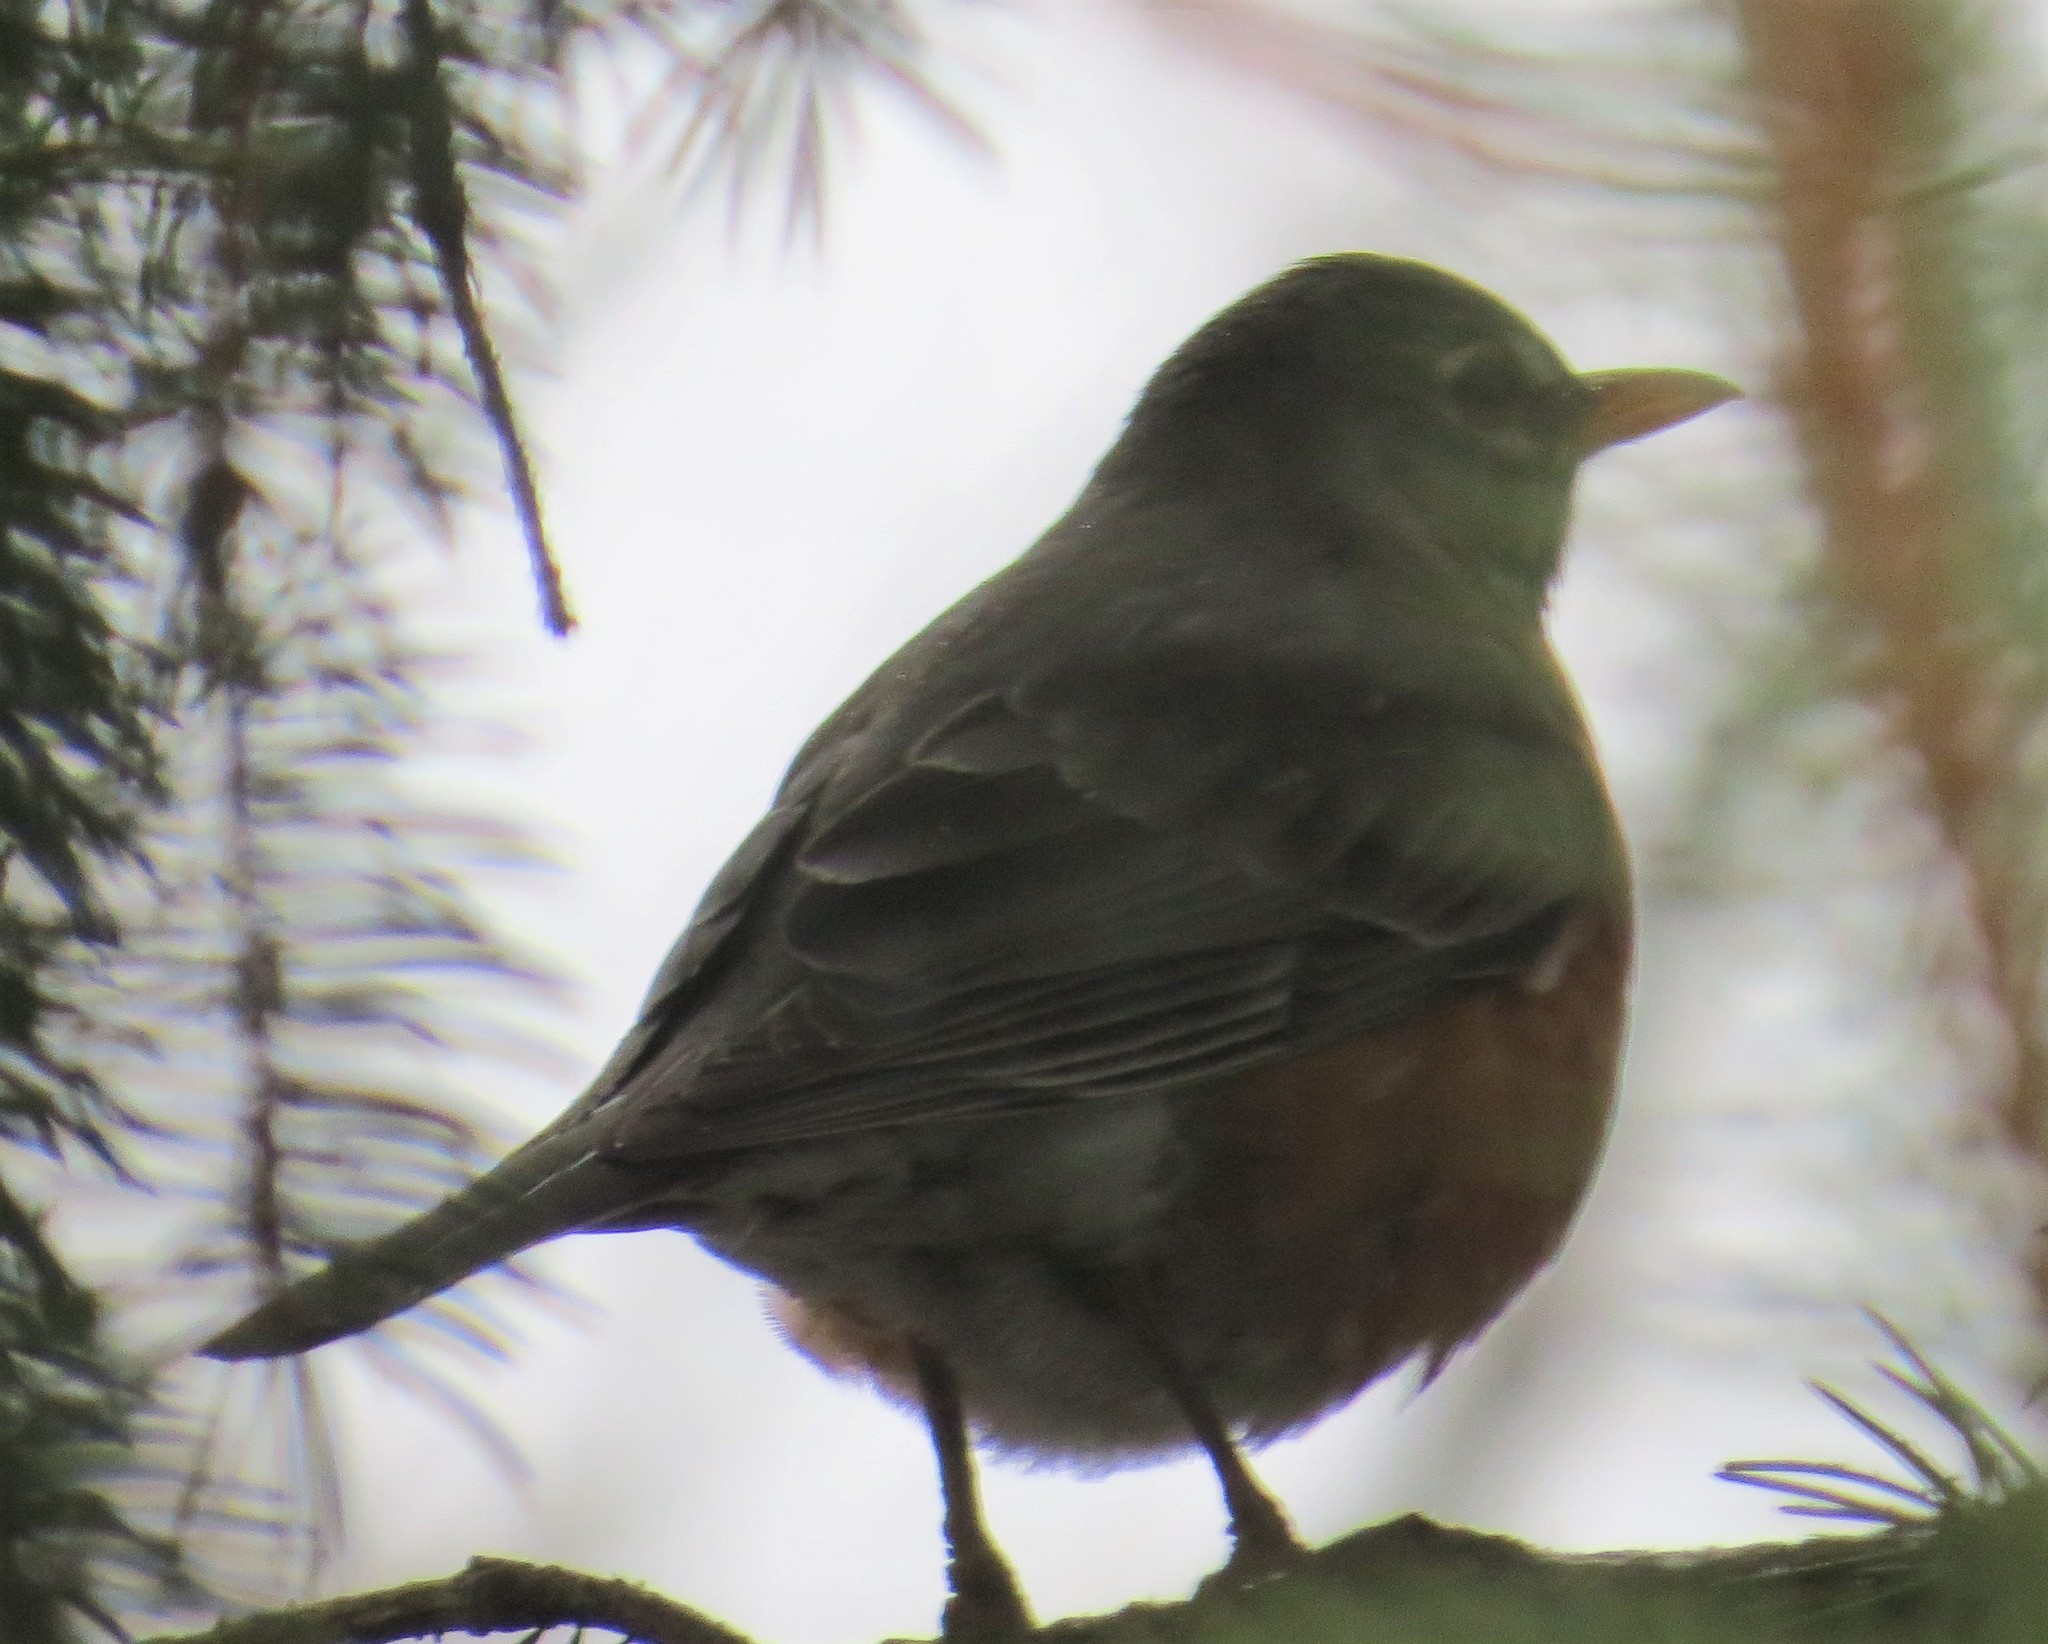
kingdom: Animalia
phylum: Chordata
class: Aves
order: Passeriformes
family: Turdidae
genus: Turdus
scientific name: Turdus migratorius
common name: American robin
